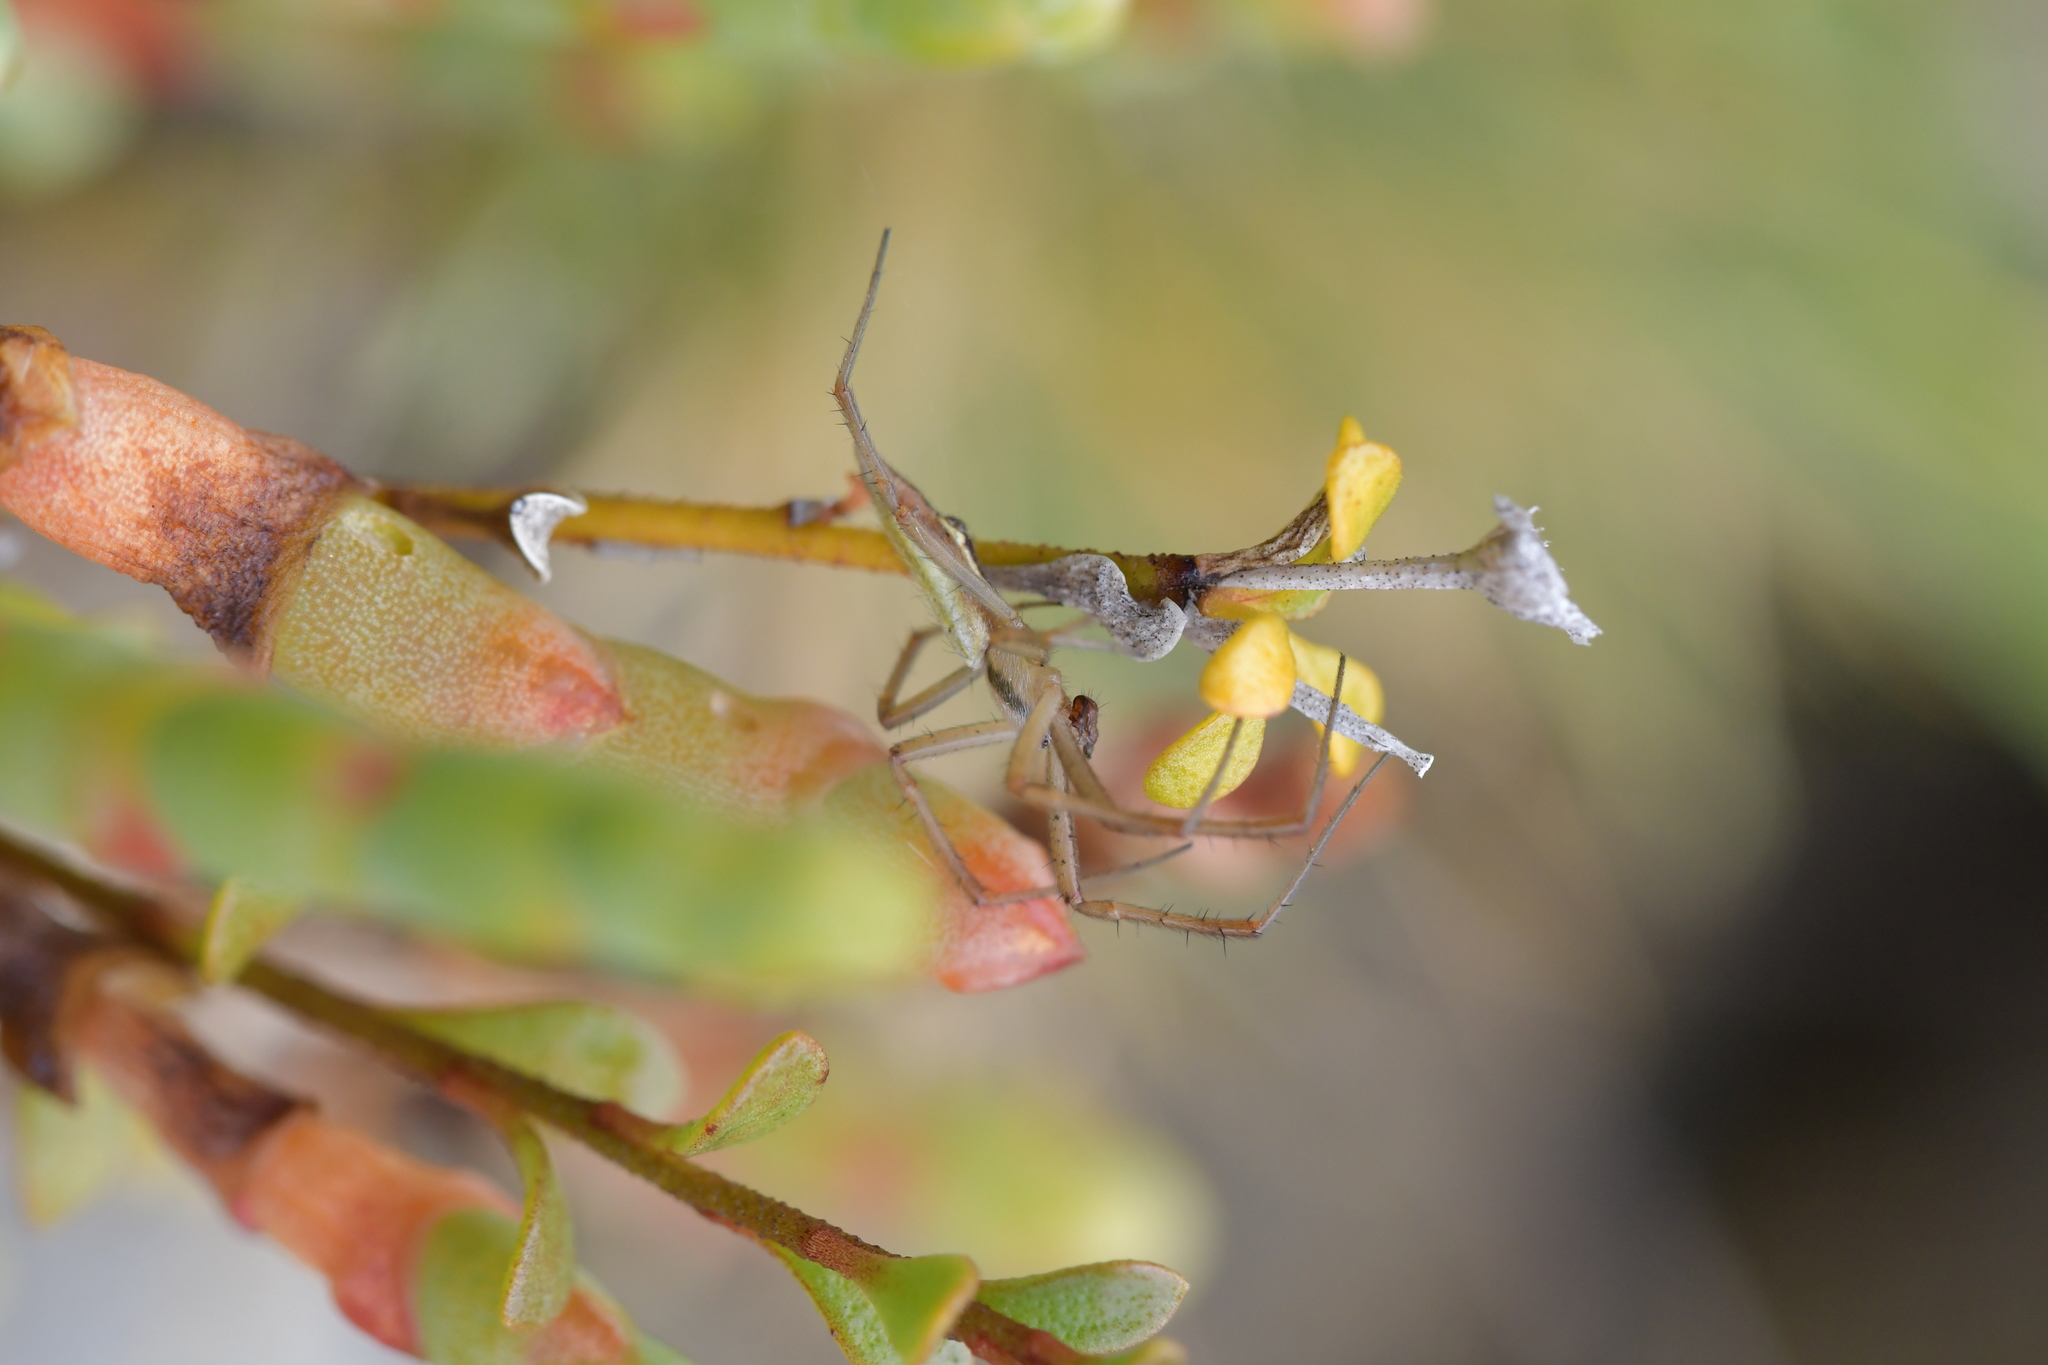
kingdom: Animalia
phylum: Arthropoda
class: Arachnida
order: Araneae
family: Araneidae
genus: Argiope
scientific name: Argiope protensa
